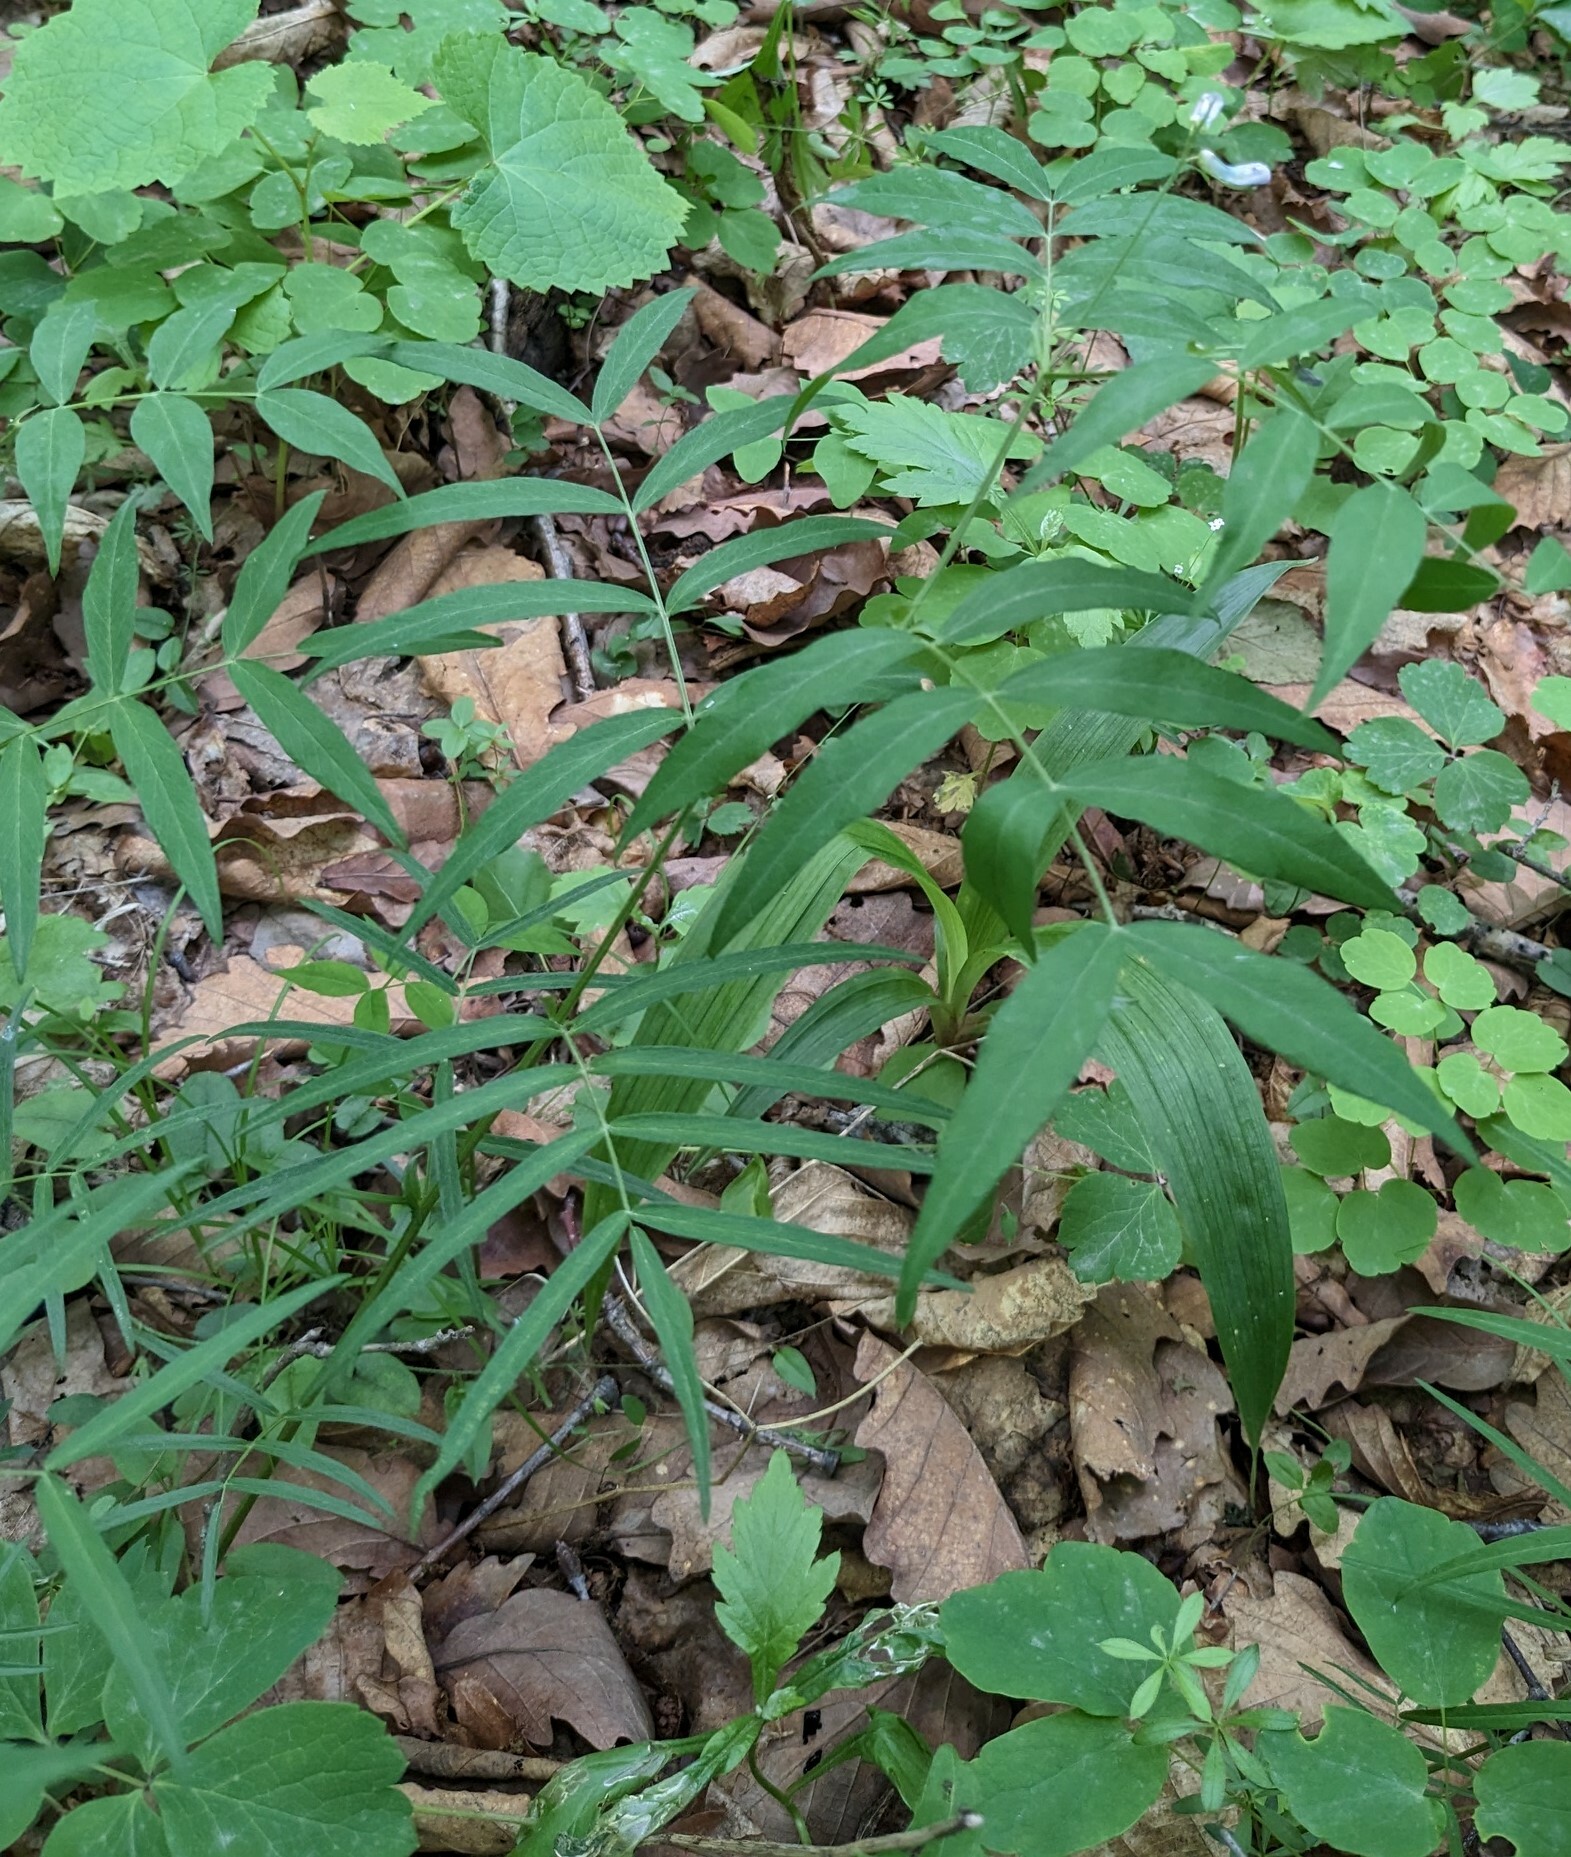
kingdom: Plantae
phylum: Tracheophyta
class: Magnoliopsida
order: Fabales
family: Fabaceae
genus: Vicia
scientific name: Vicia venosa
